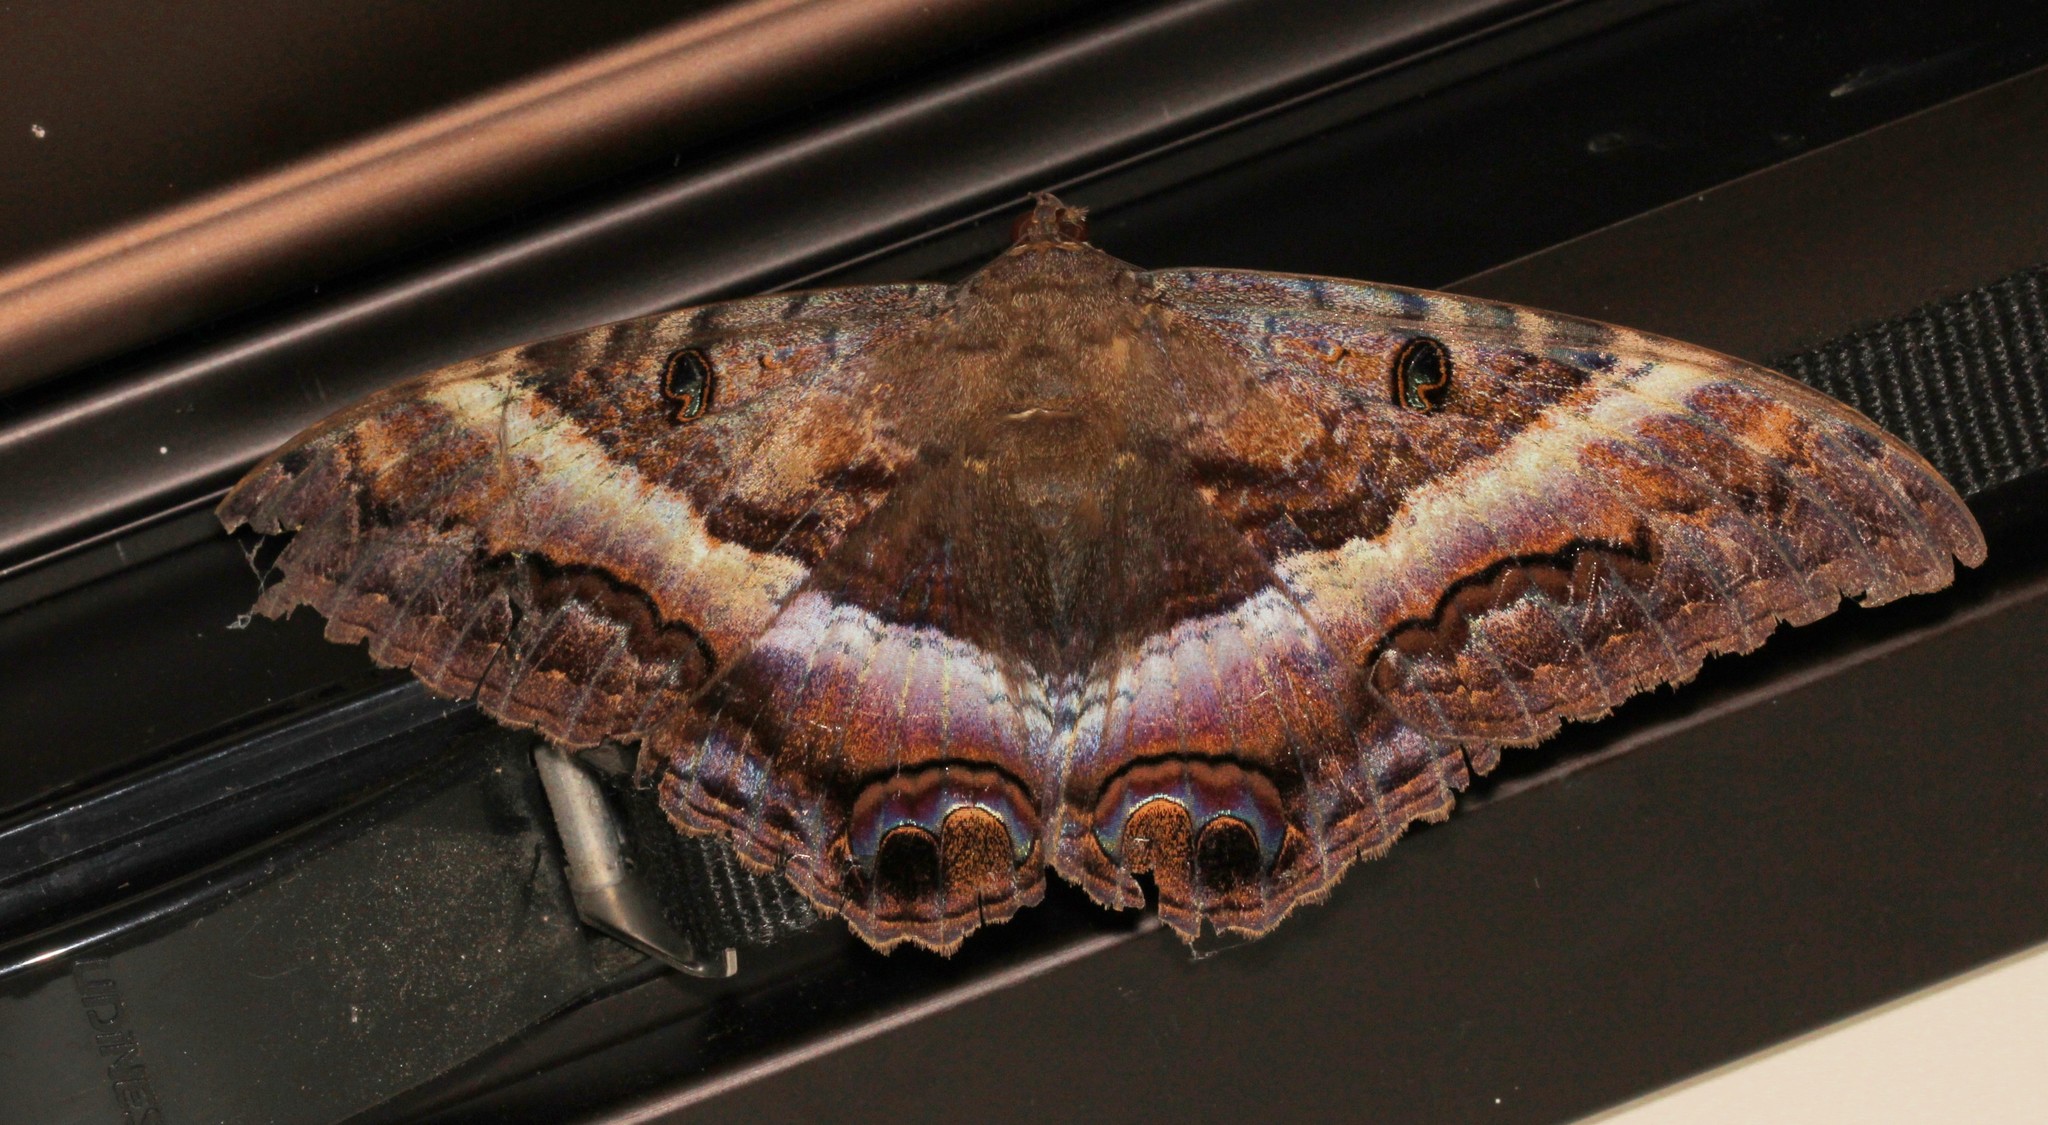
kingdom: Animalia
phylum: Arthropoda
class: Insecta
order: Lepidoptera
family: Erebidae
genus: Ascalapha
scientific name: Ascalapha odorata
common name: Black witch
